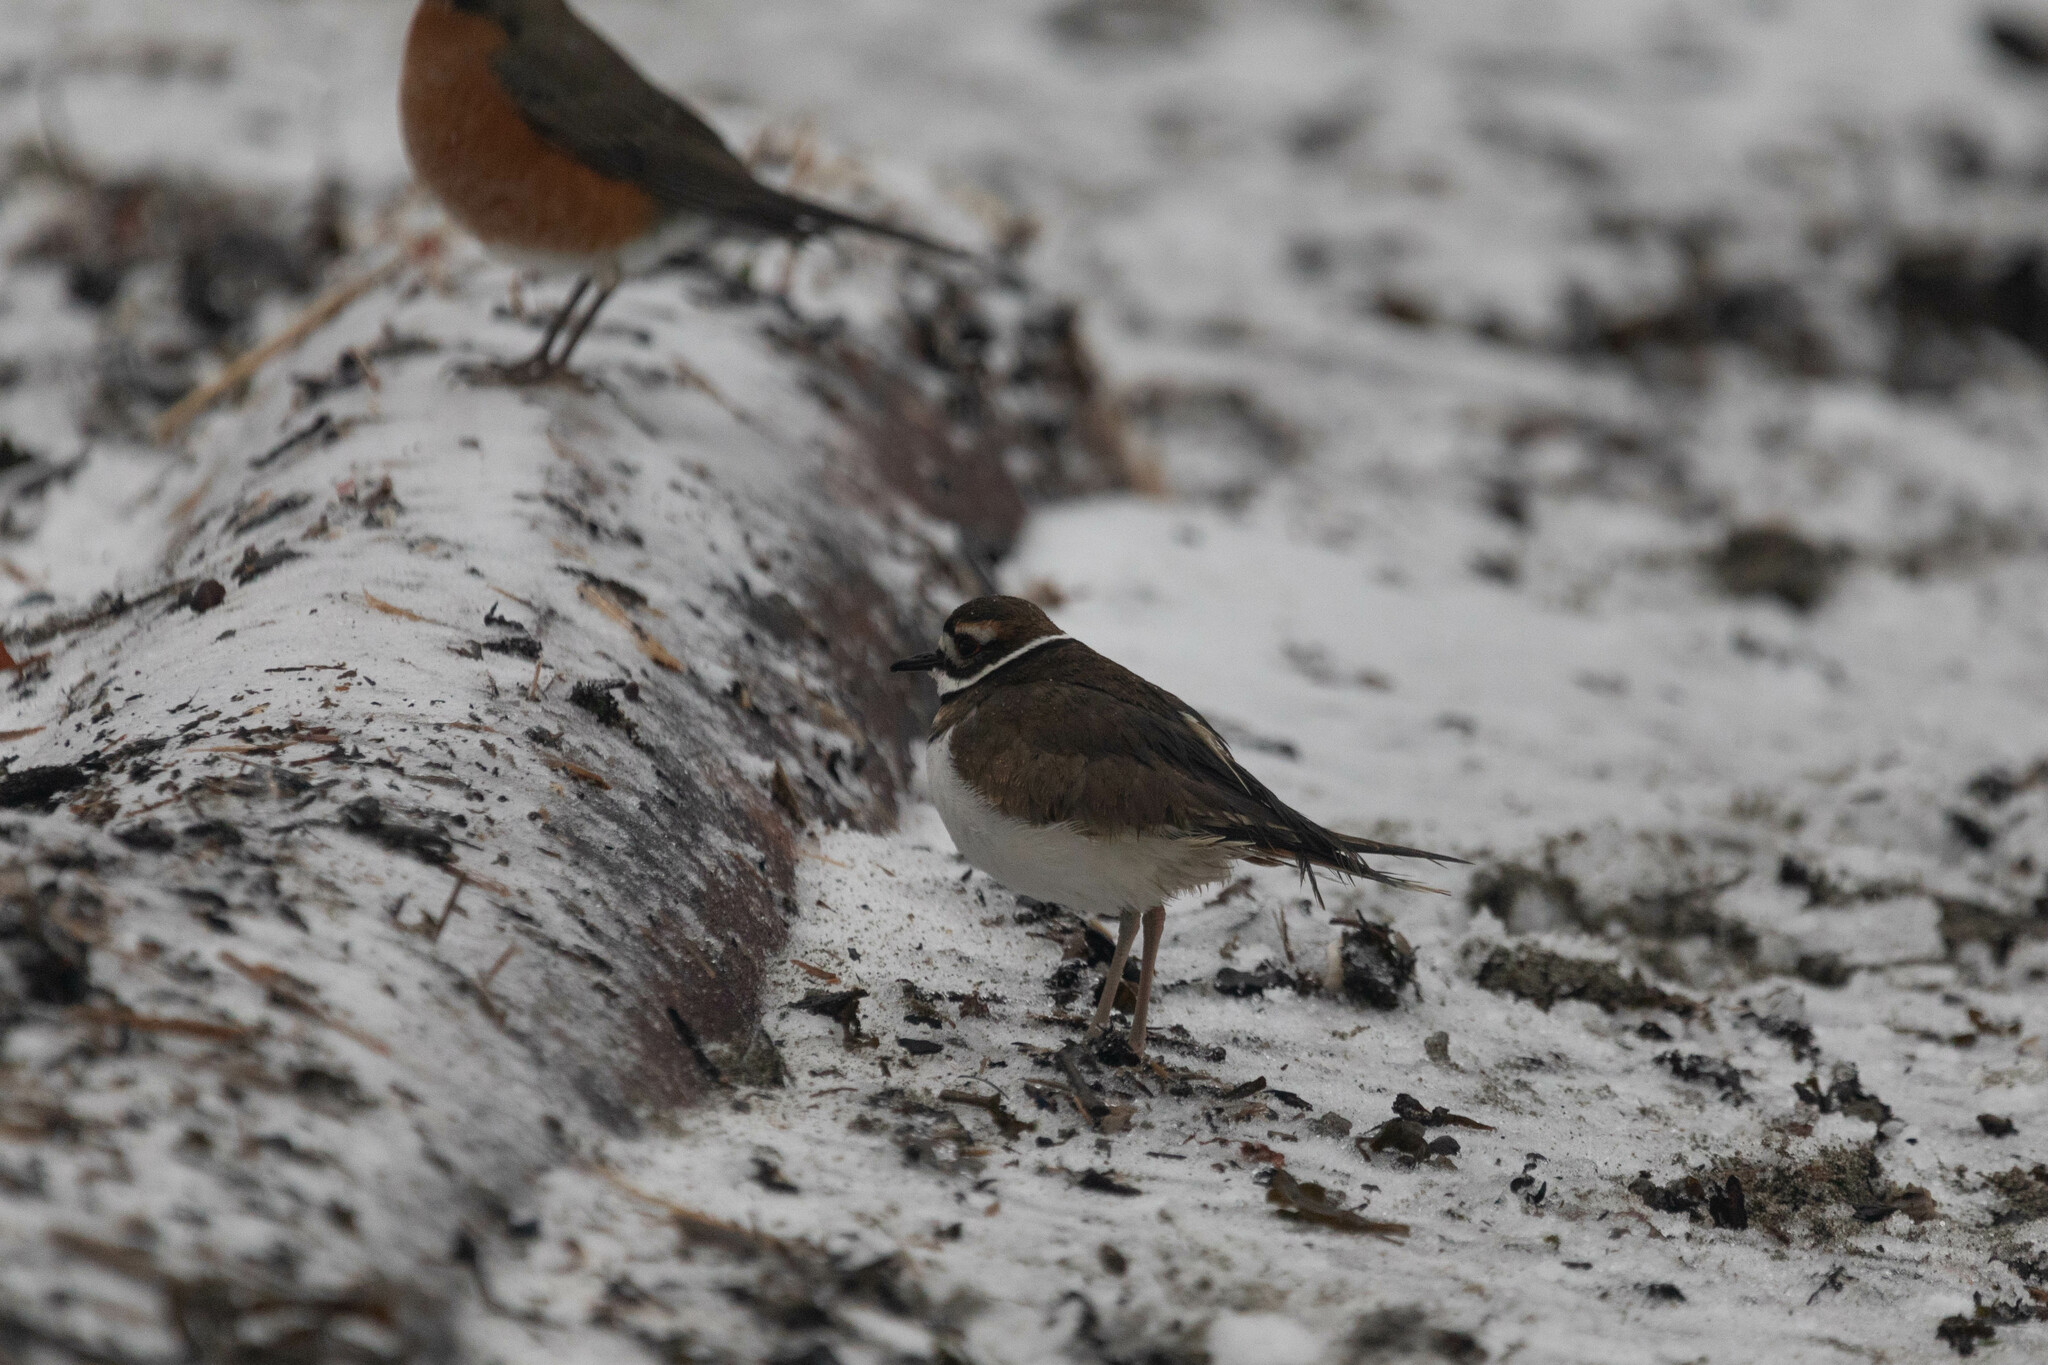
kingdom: Animalia
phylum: Chordata
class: Aves
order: Charadriiformes
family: Charadriidae
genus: Charadrius
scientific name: Charadrius vociferus
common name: Killdeer
